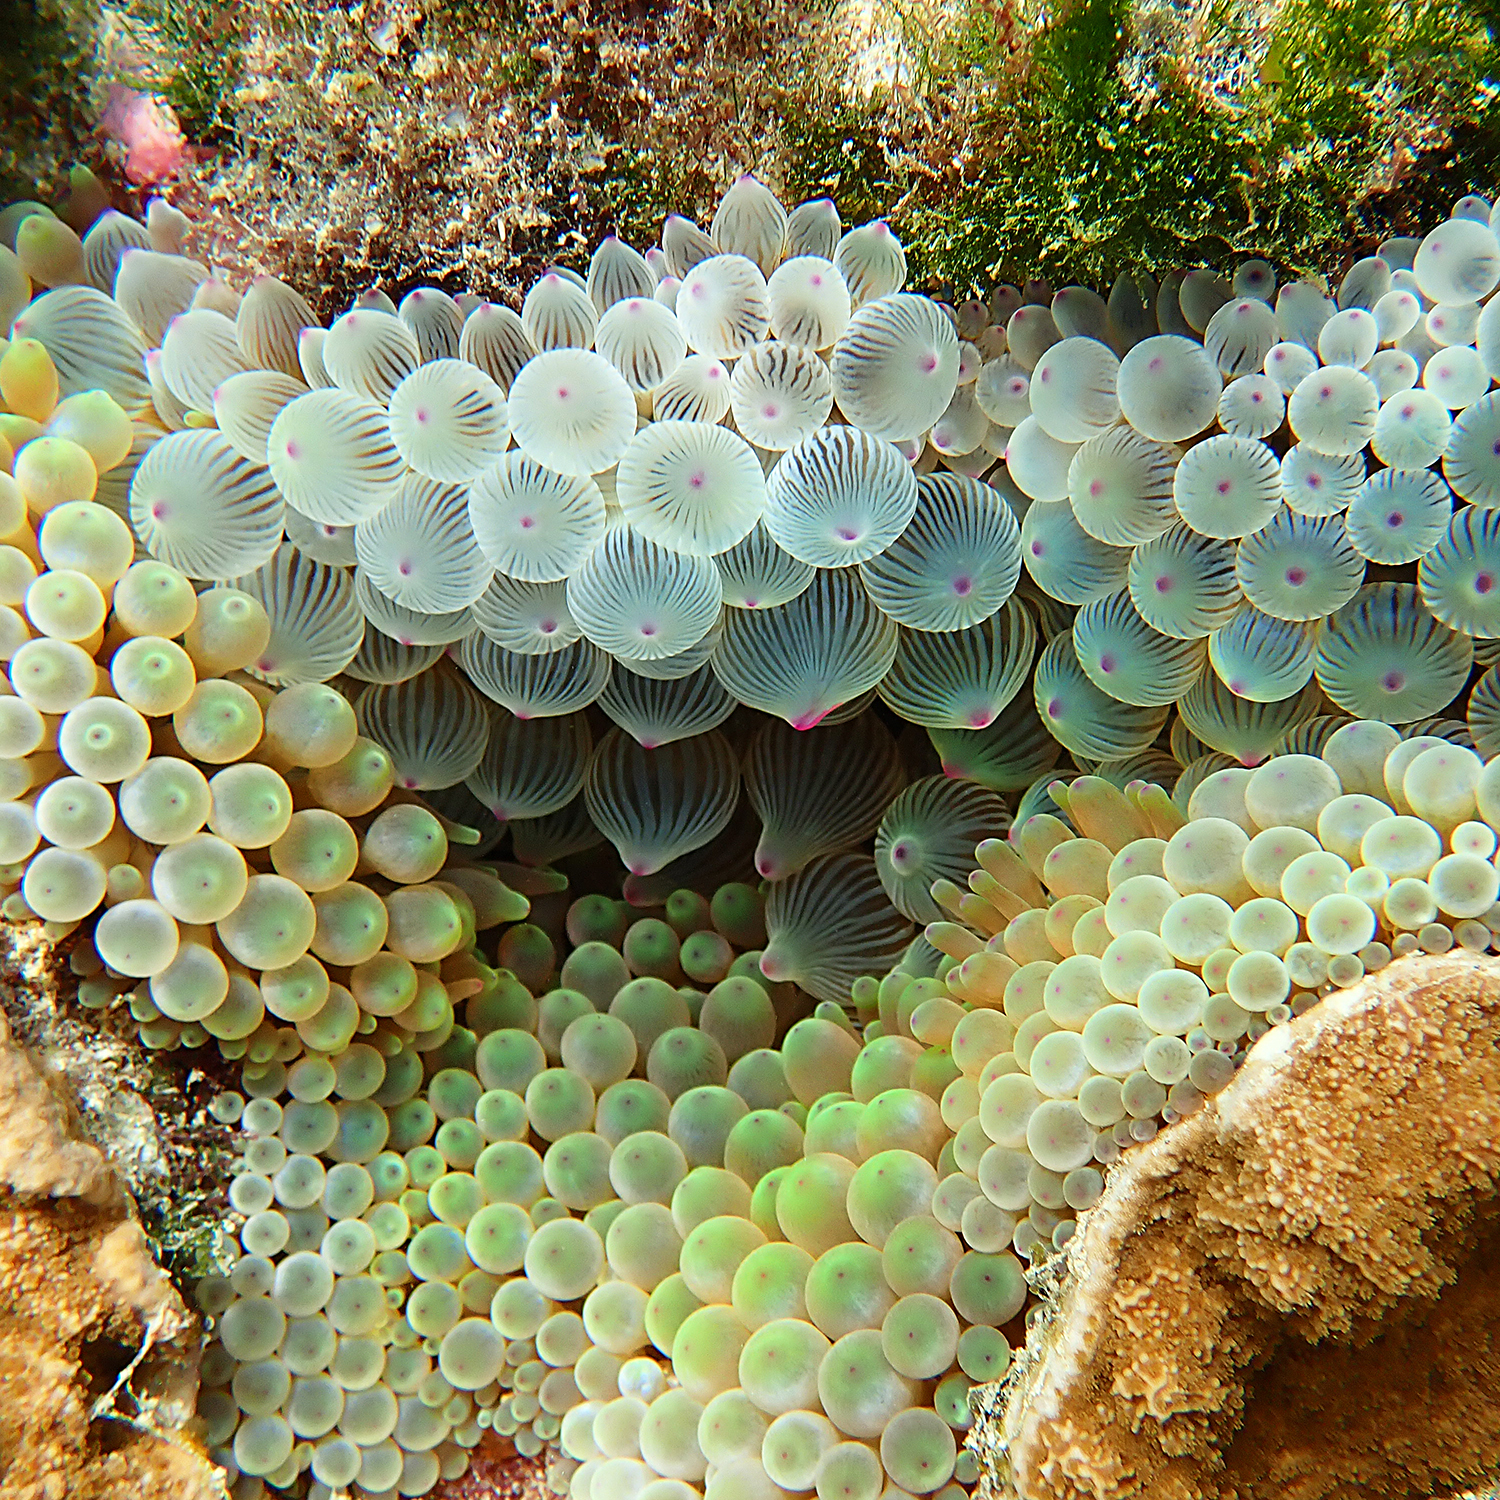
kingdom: Animalia
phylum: Cnidaria
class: Anthozoa
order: Actiniaria
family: Actiniidae
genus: Entacmaea
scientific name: Entacmaea quadricolor
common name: Bulb tentacle sea anemone
